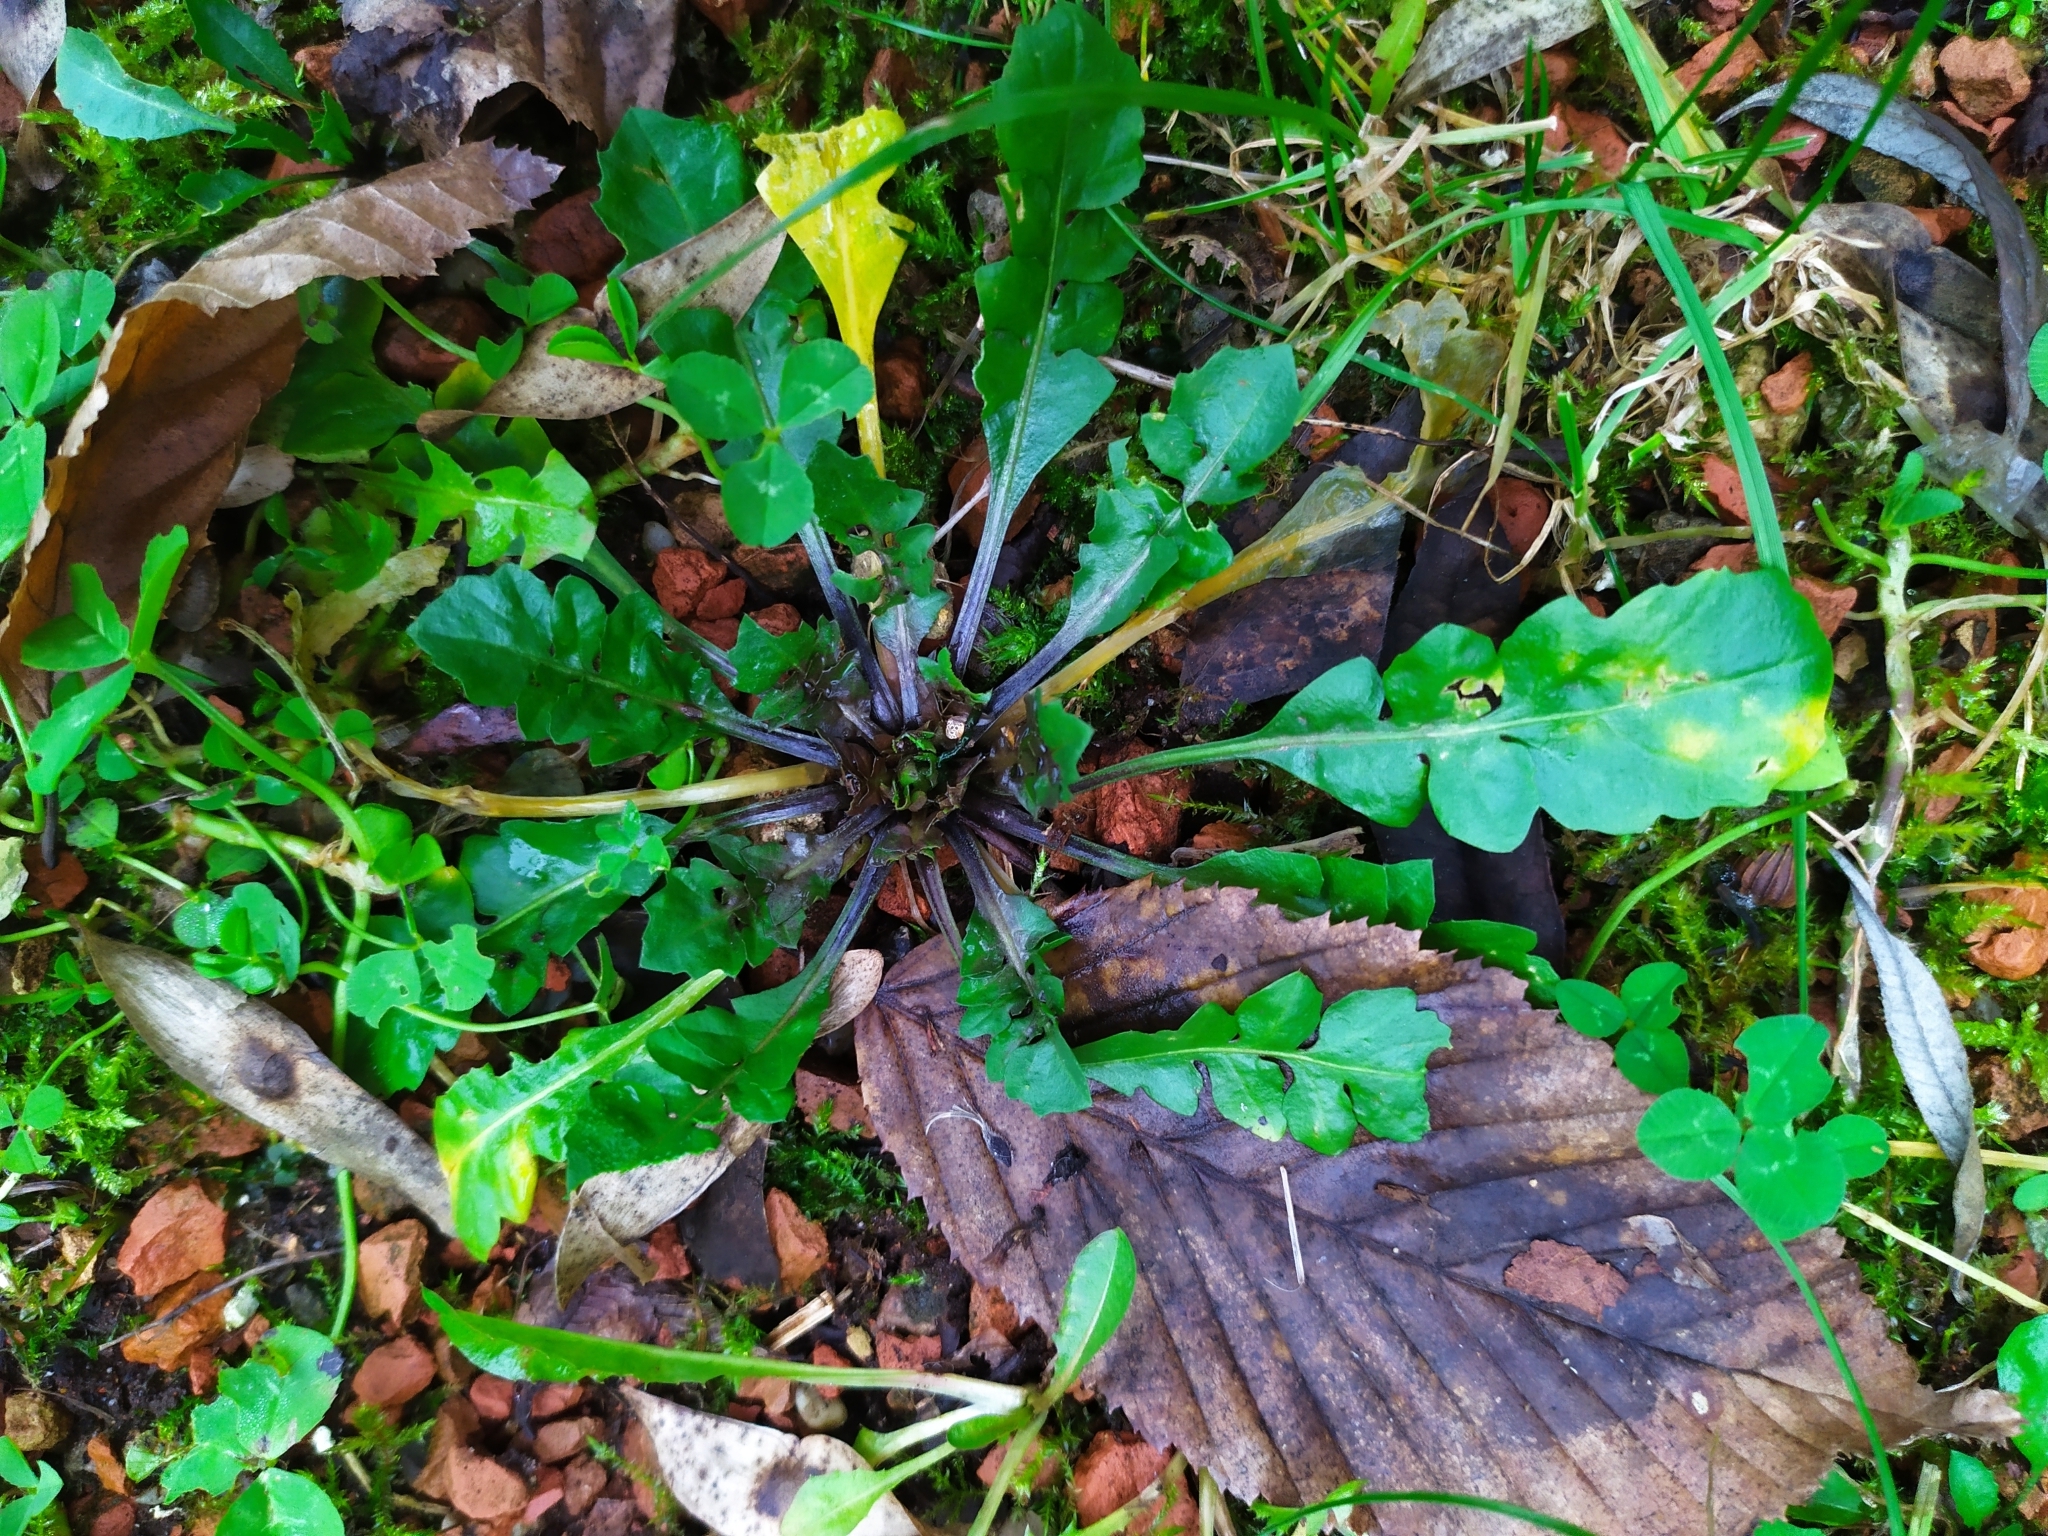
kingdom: Chromista
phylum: Oomycota
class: Peronosporea
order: Peronosporales
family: Peronosporaceae
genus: Hyaloperonospora
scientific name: Hyaloperonospora parasitica
